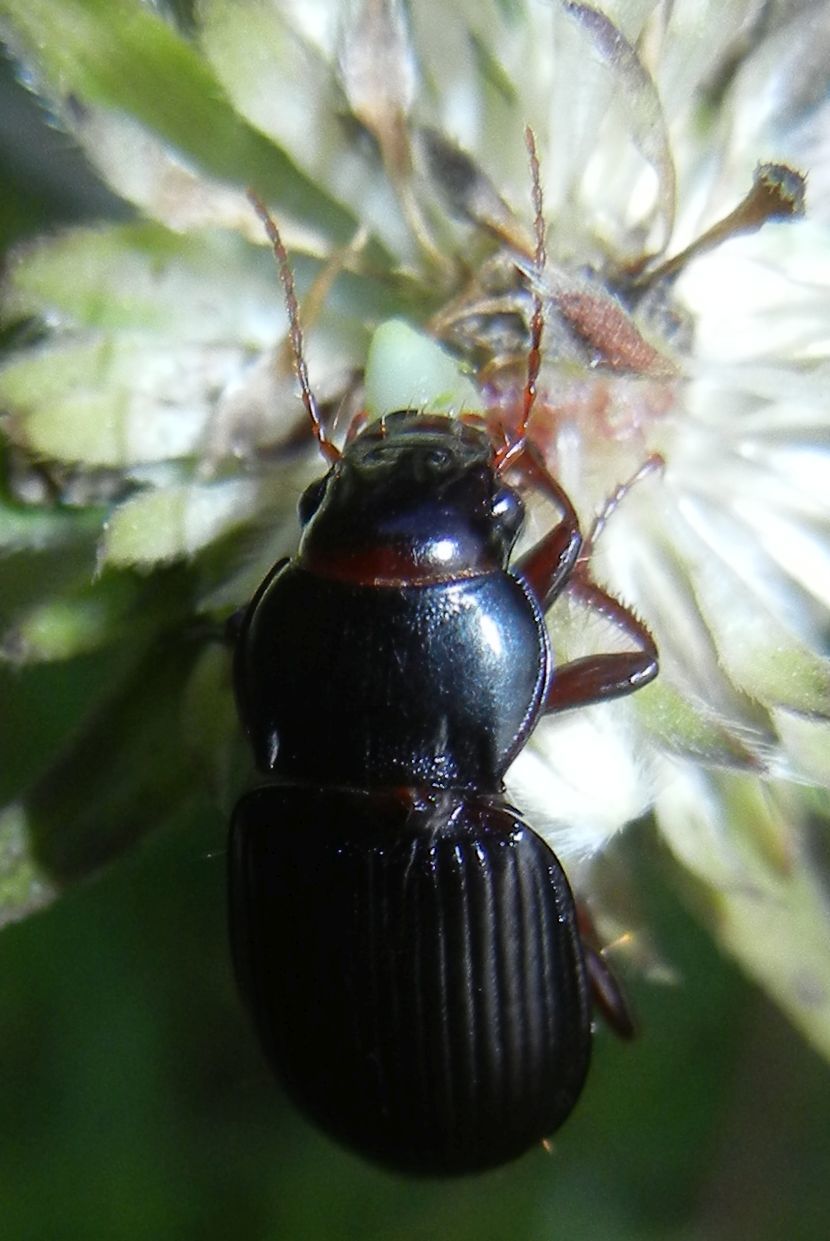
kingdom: Animalia
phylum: Arthropoda
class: Insecta
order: Coleoptera
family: Carabidae
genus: Amara
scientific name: Amara aulica
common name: Princely harp ground beetle
